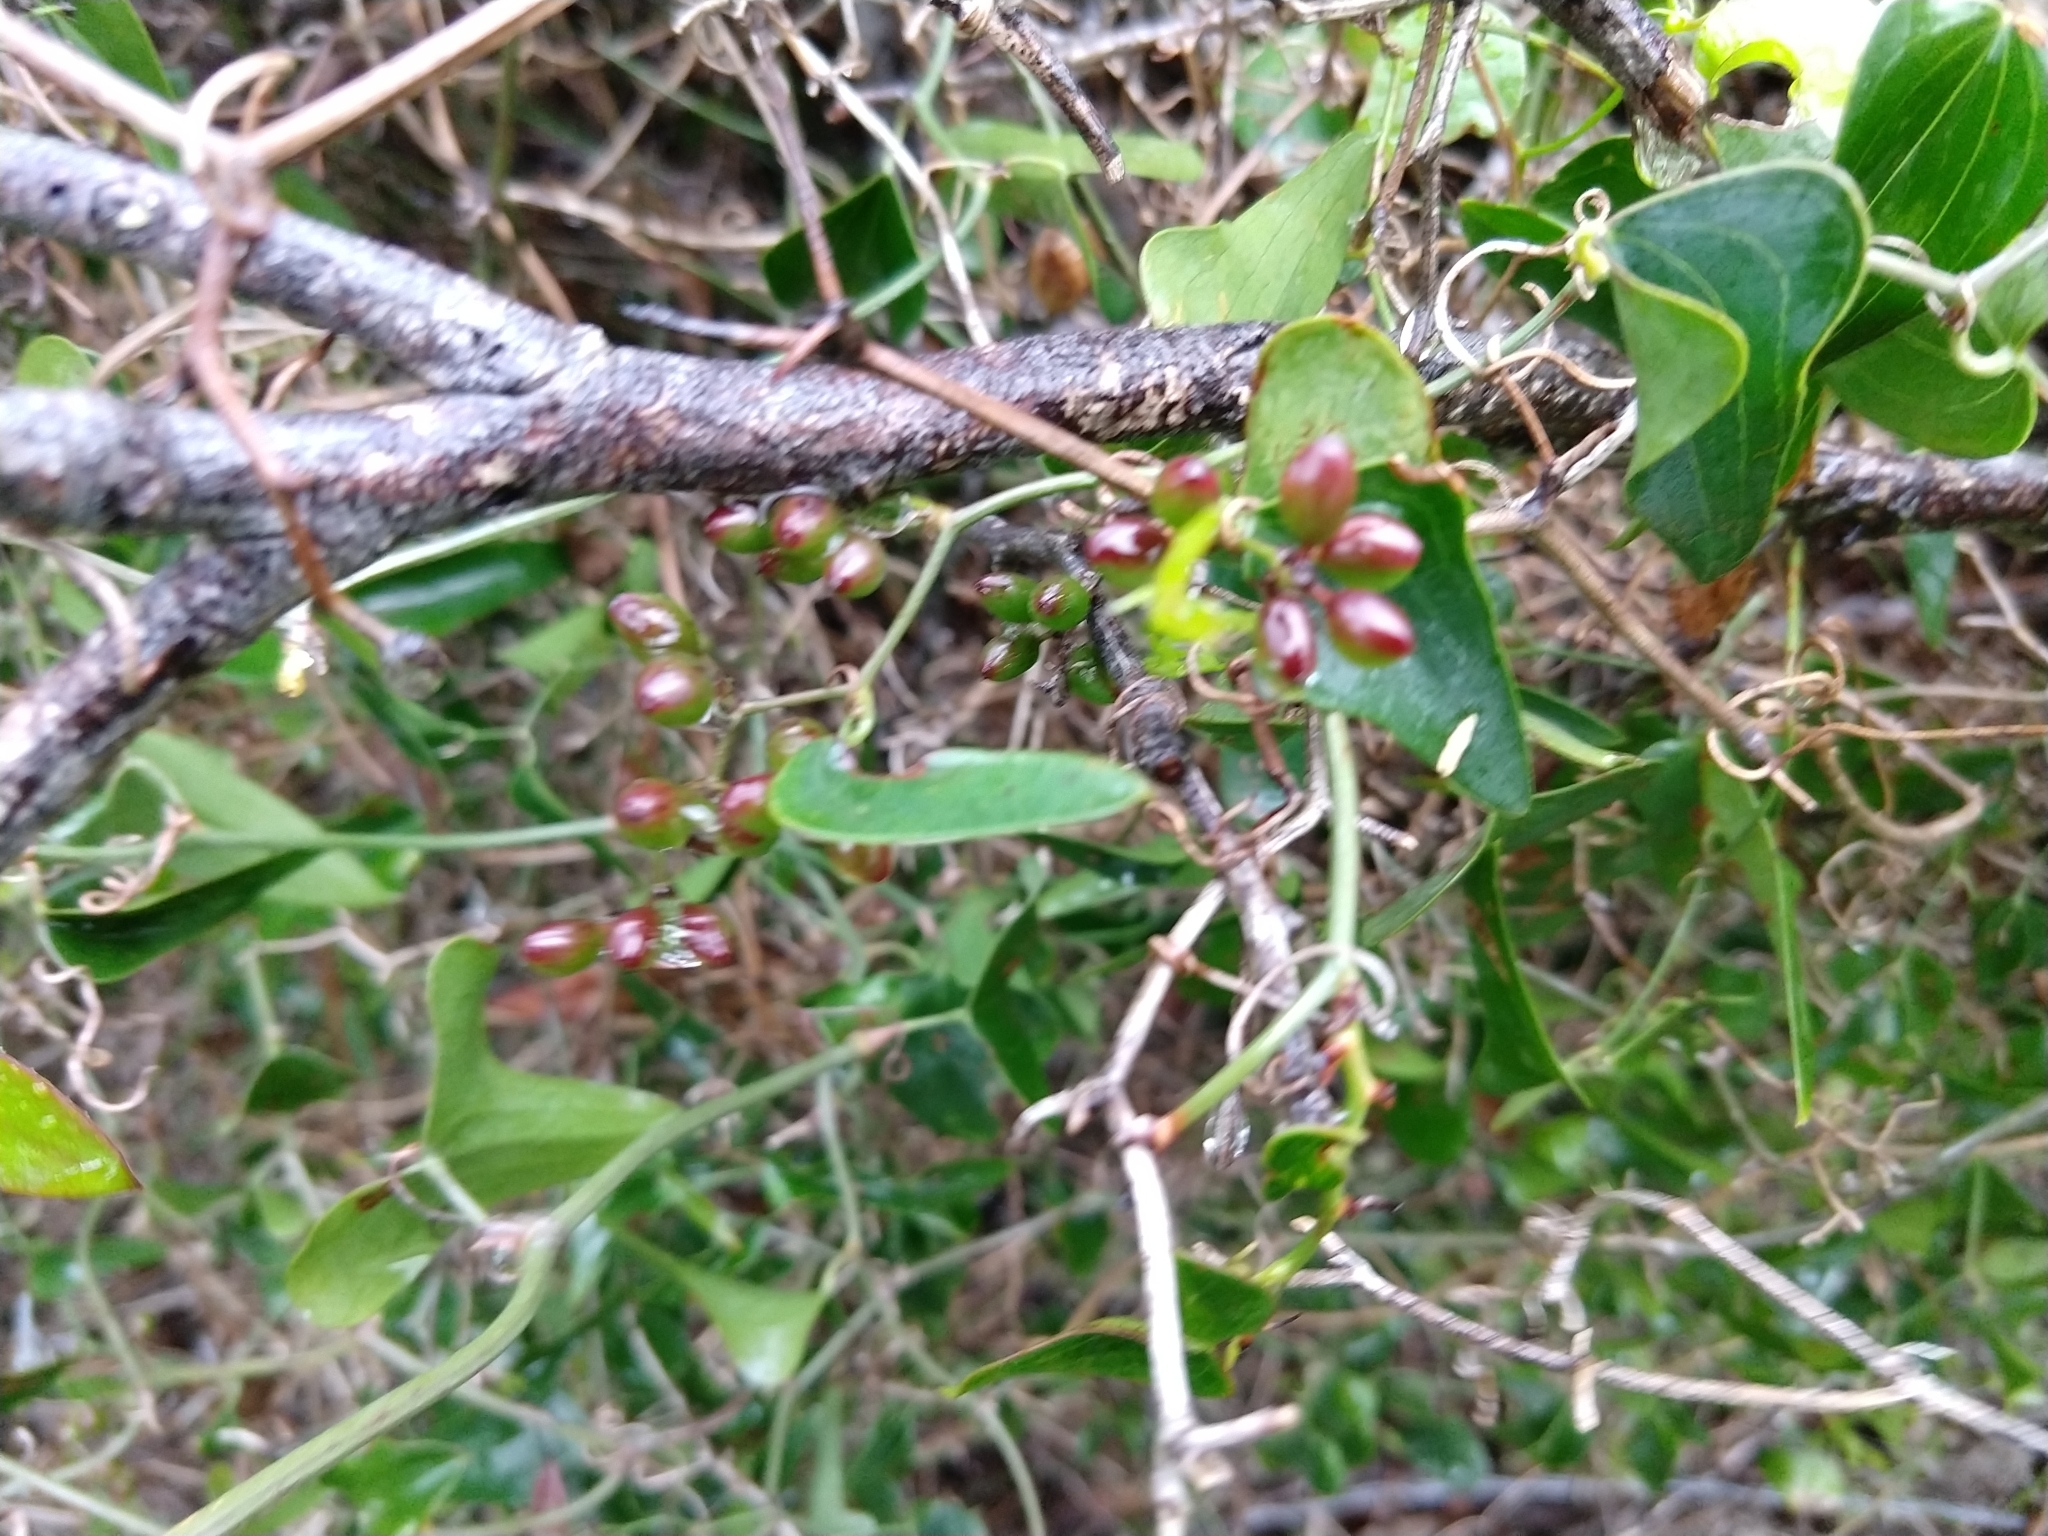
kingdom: Plantae
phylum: Tracheophyta
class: Liliopsida
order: Liliales
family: Smilacaceae
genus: Smilax
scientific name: Smilax aspera
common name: Common smilax
